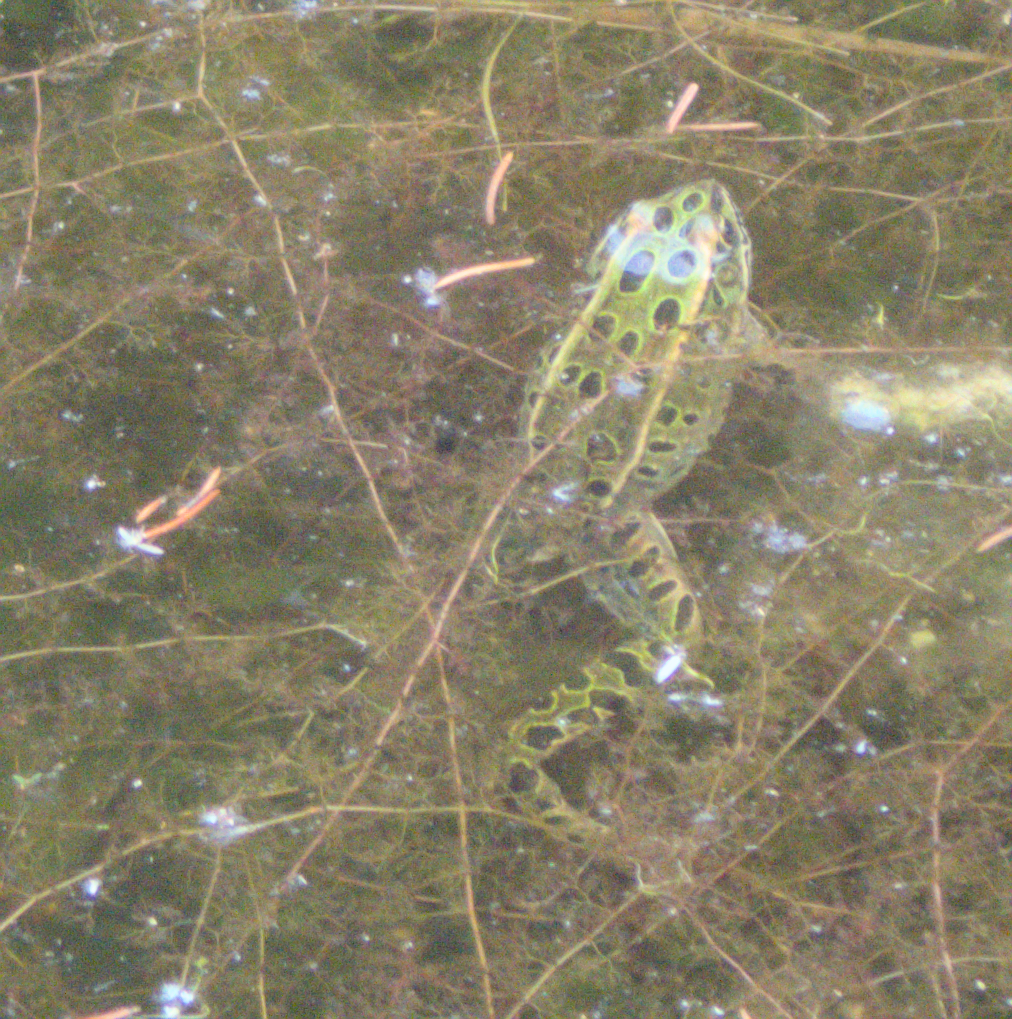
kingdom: Animalia
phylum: Chordata
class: Amphibia
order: Anura
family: Ranidae
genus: Lithobates
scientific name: Lithobates pipiens
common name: Northern leopard frog
